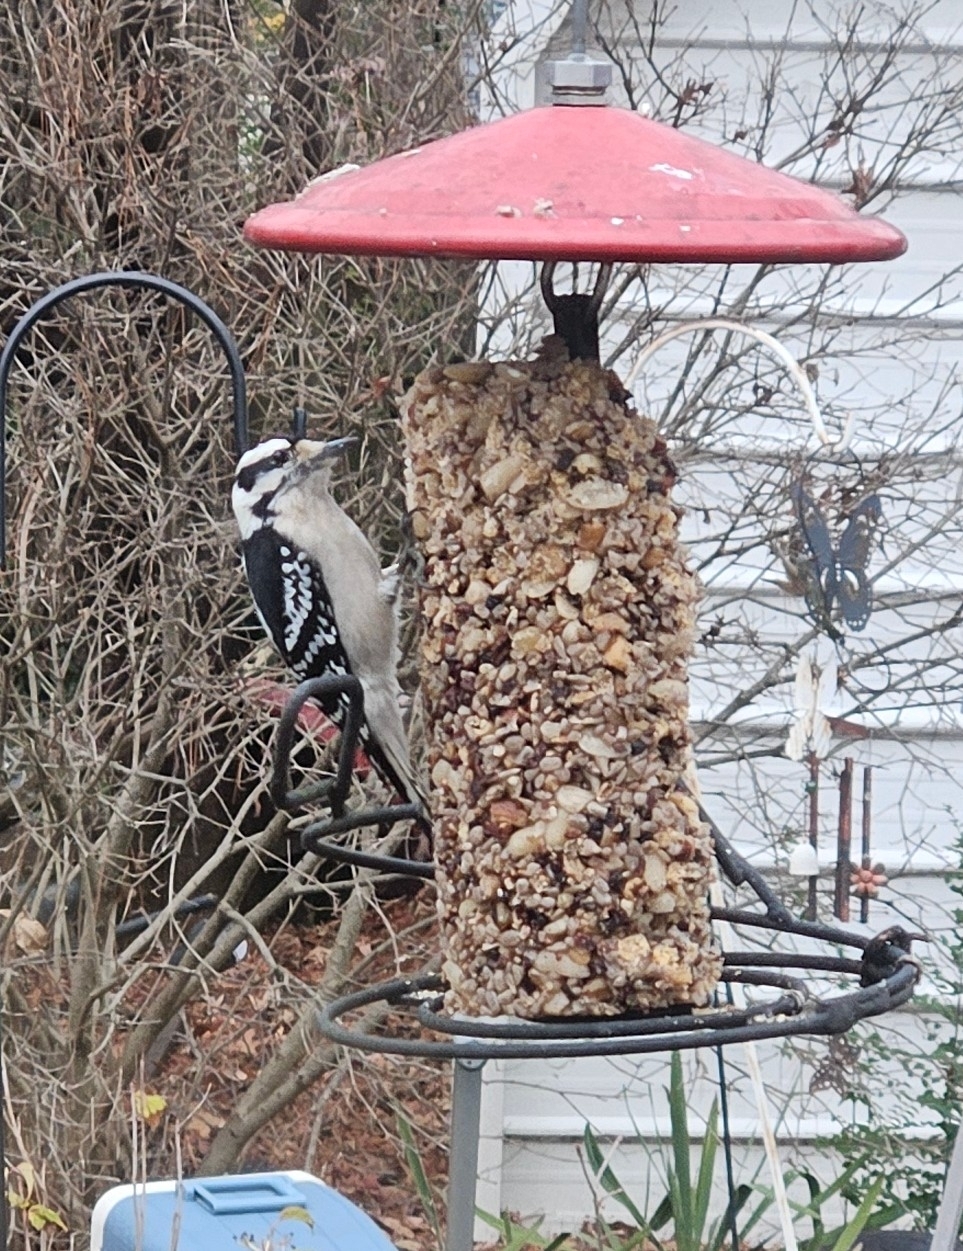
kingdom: Animalia
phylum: Chordata
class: Aves
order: Piciformes
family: Picidae
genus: Dryobates
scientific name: Dryobates pubescens
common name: Downy woodpecker
